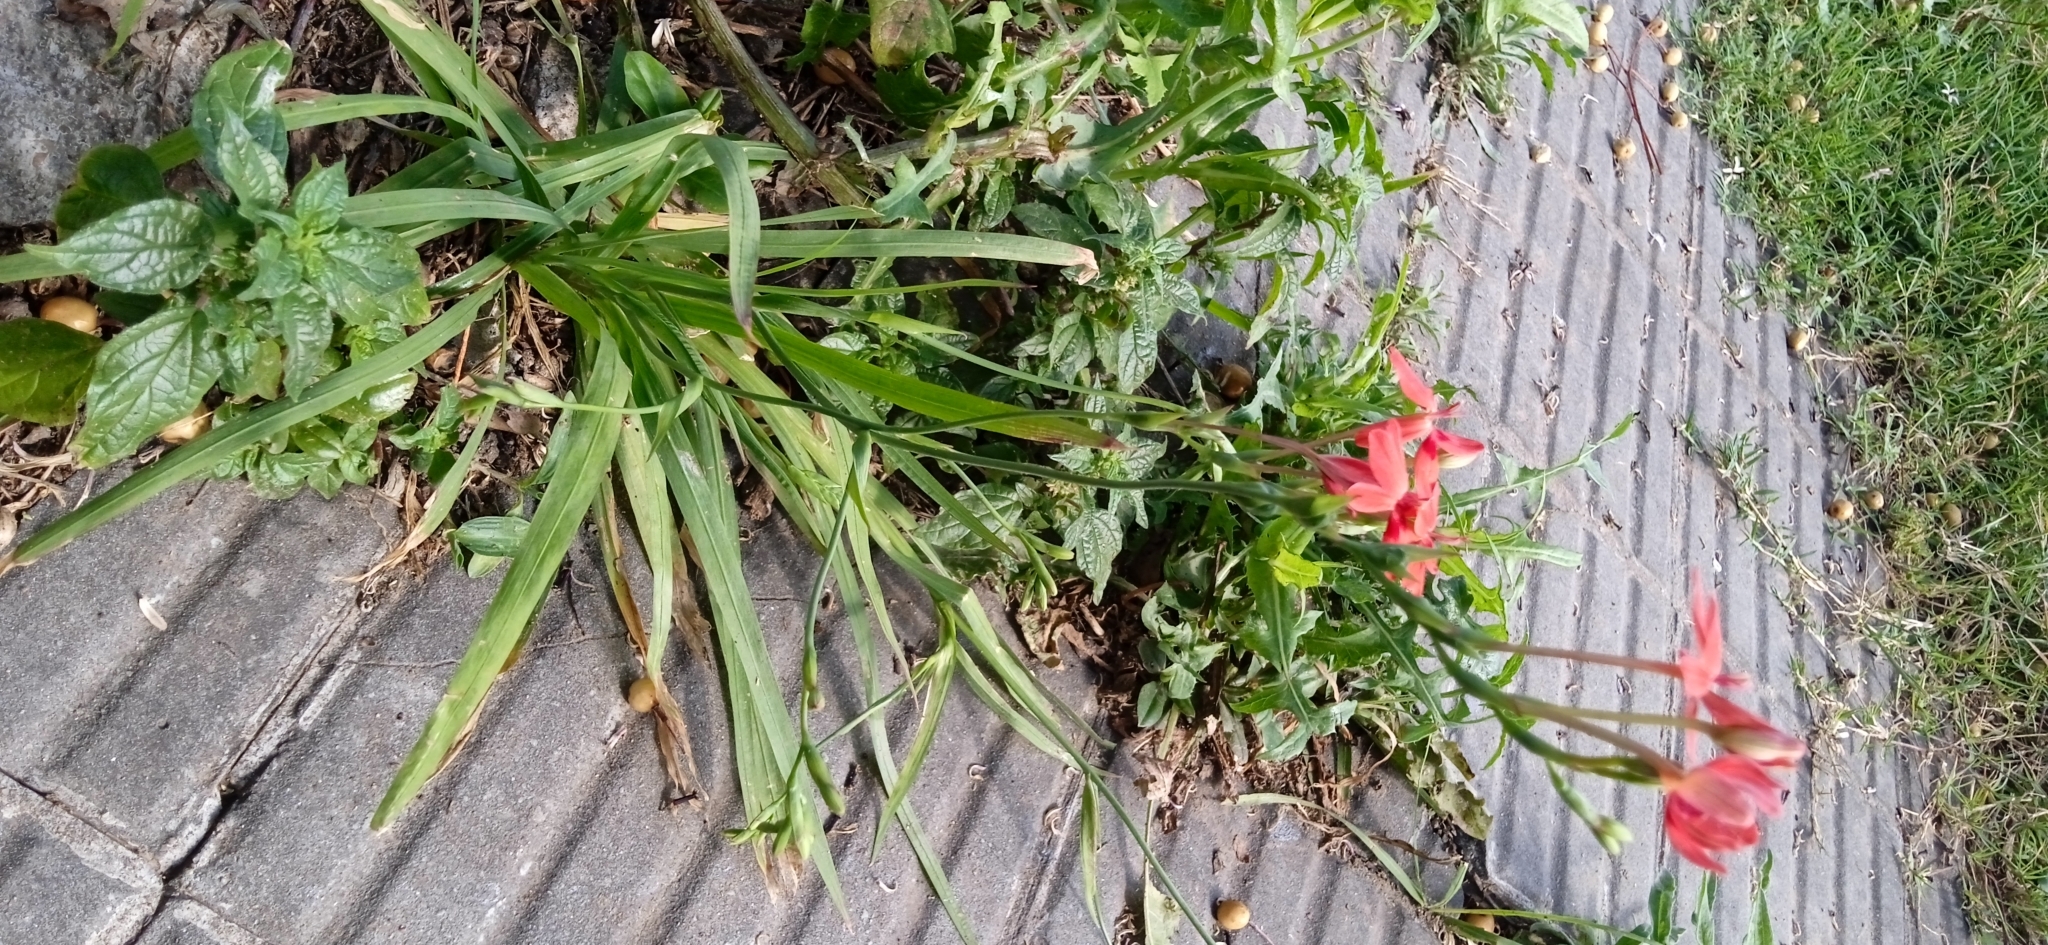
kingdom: Plantae
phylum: Tracheophyta
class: Liliopsida
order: Asparagales
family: Iridaceae
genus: Freesia
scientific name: Freesia laxa
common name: False freesia
